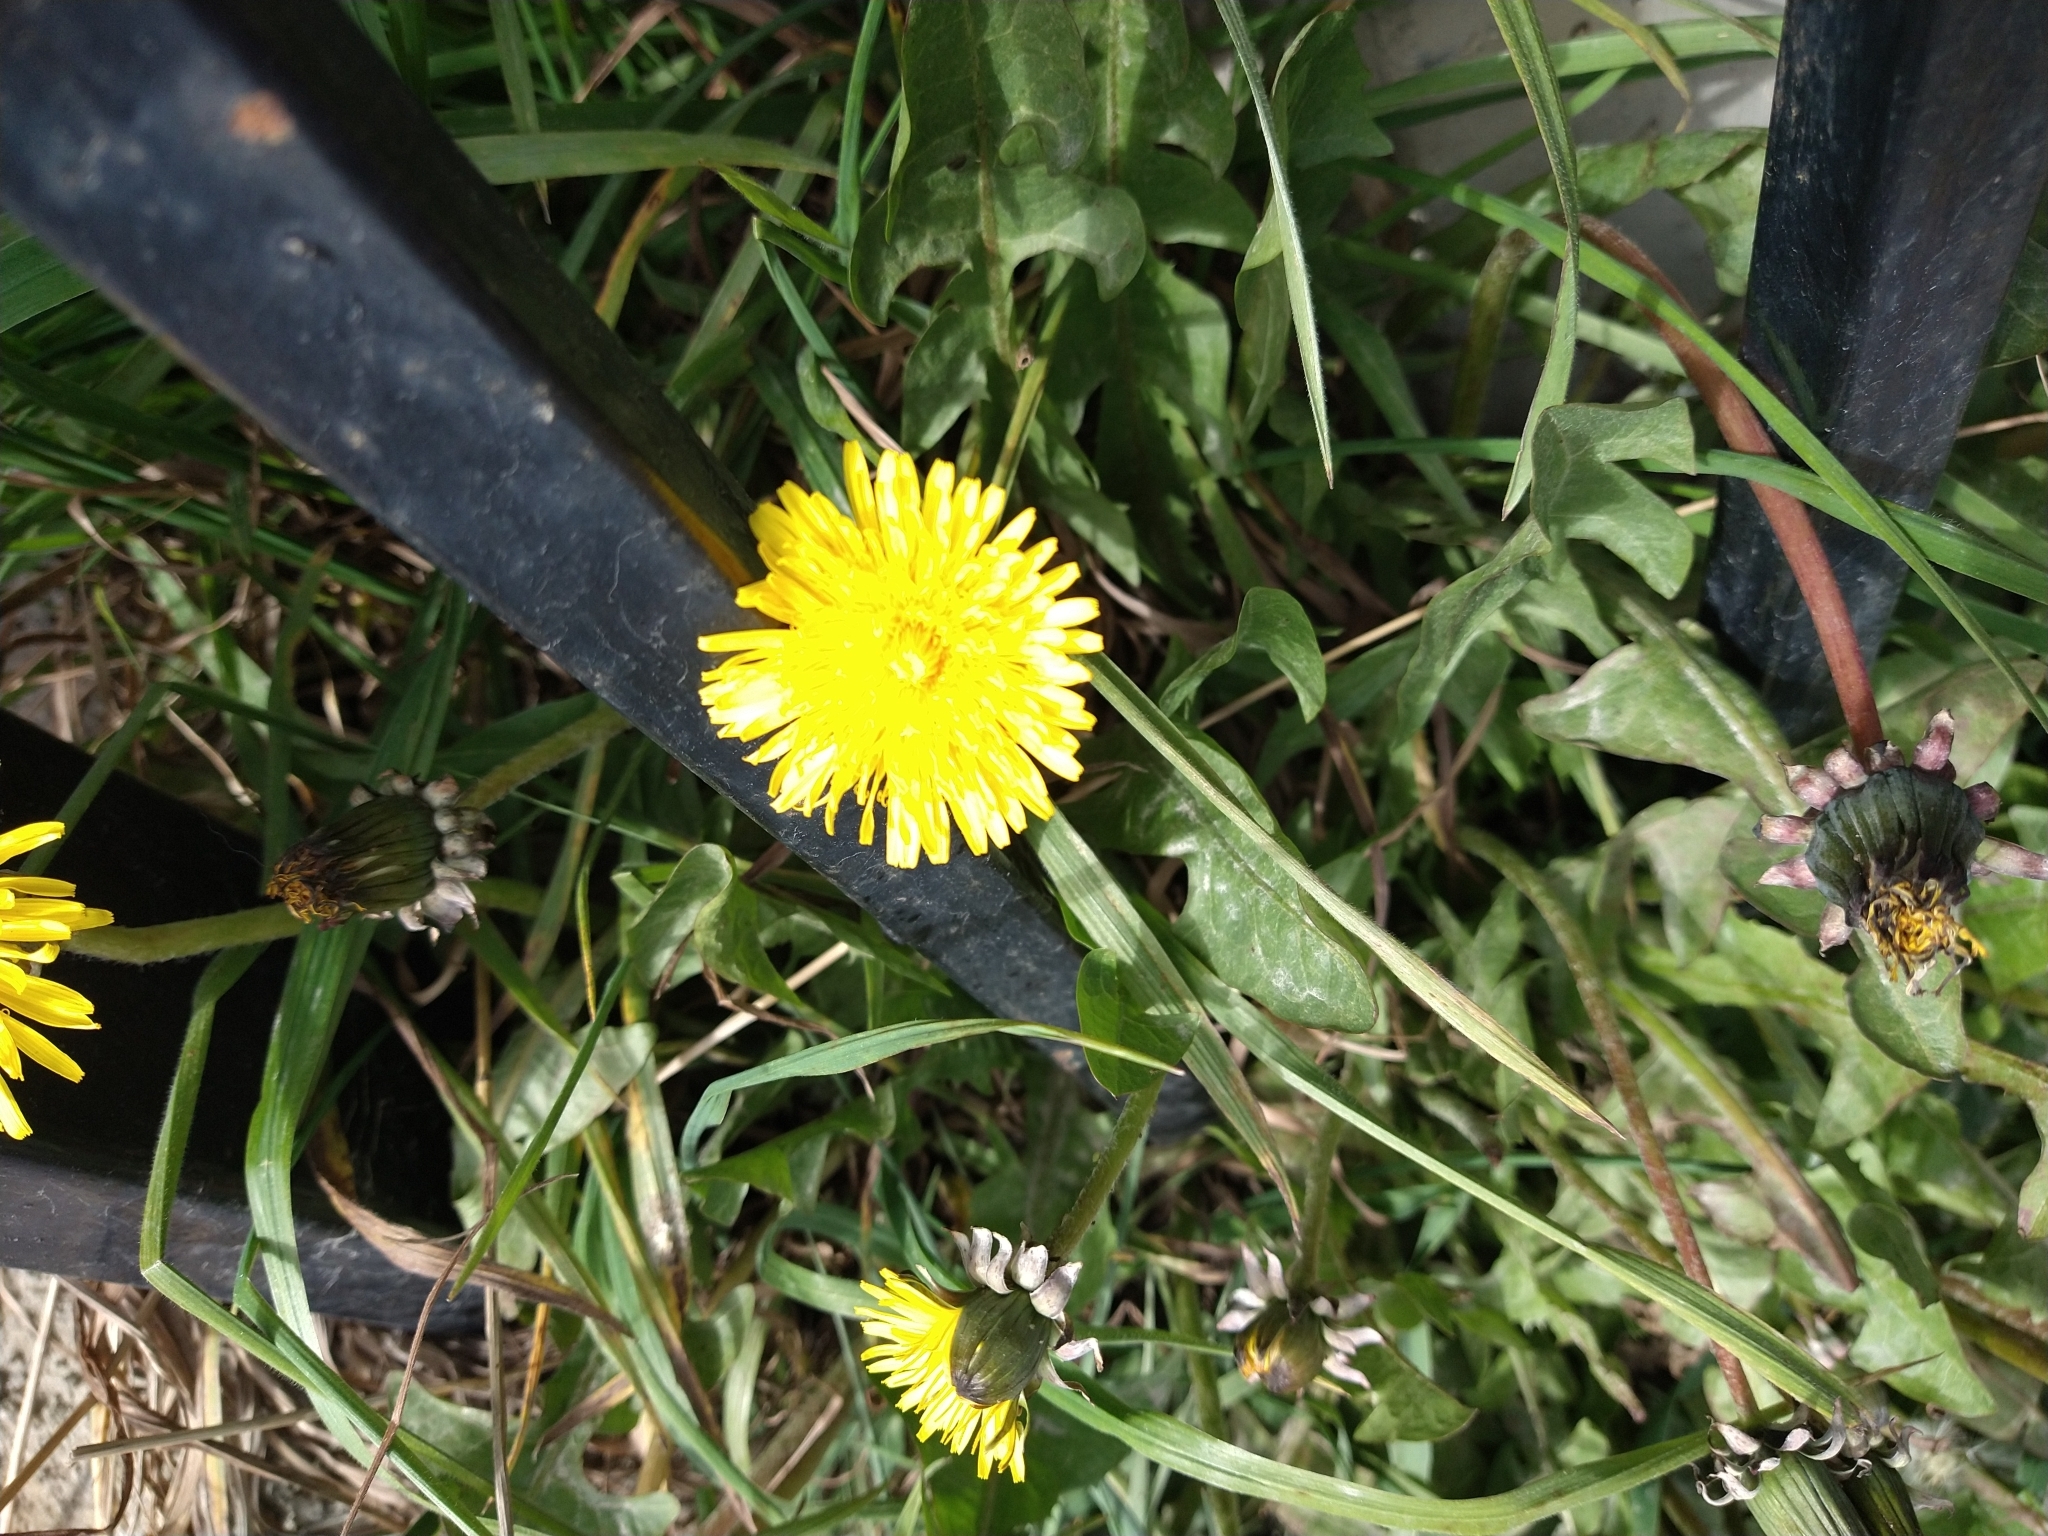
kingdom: Plantae
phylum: Tracheophyta
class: Magnoliopsida
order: Asterales
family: Asteraceae
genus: Taraxacum
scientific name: Taraxacum officinale
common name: Common dandelion
